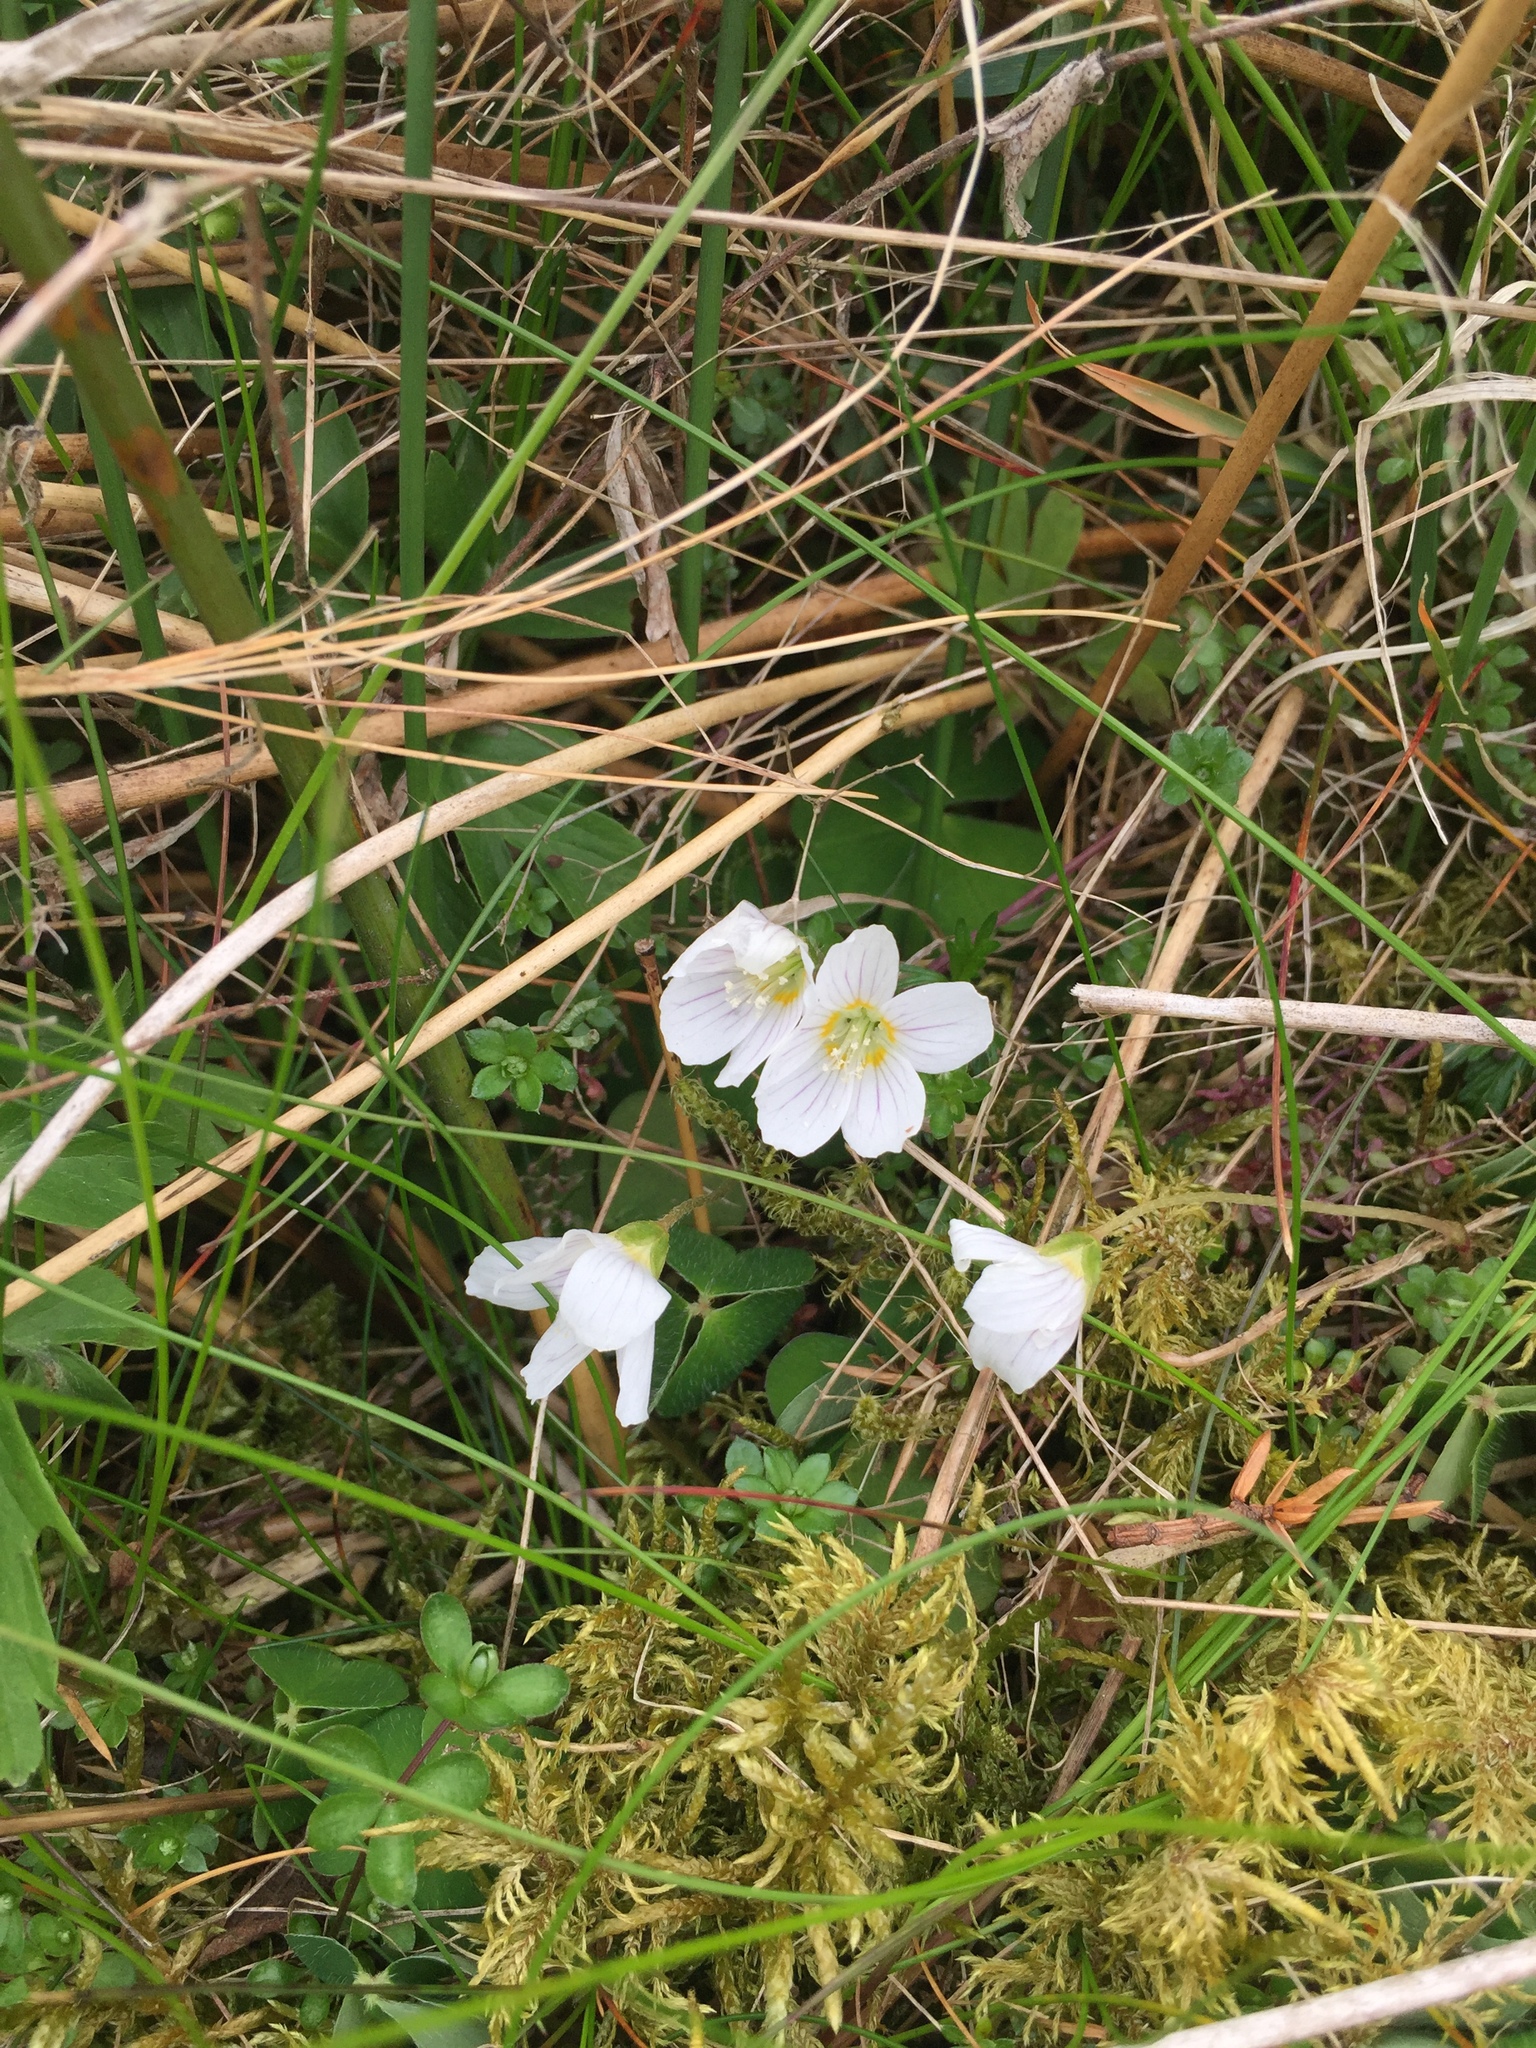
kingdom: Plantae
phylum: Tracheophyta
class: Magnoliopsida
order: Oxalidales
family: Oxalidaceae
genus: Oxalis
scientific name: Oxalis acetosella
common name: Wood-sorrel
